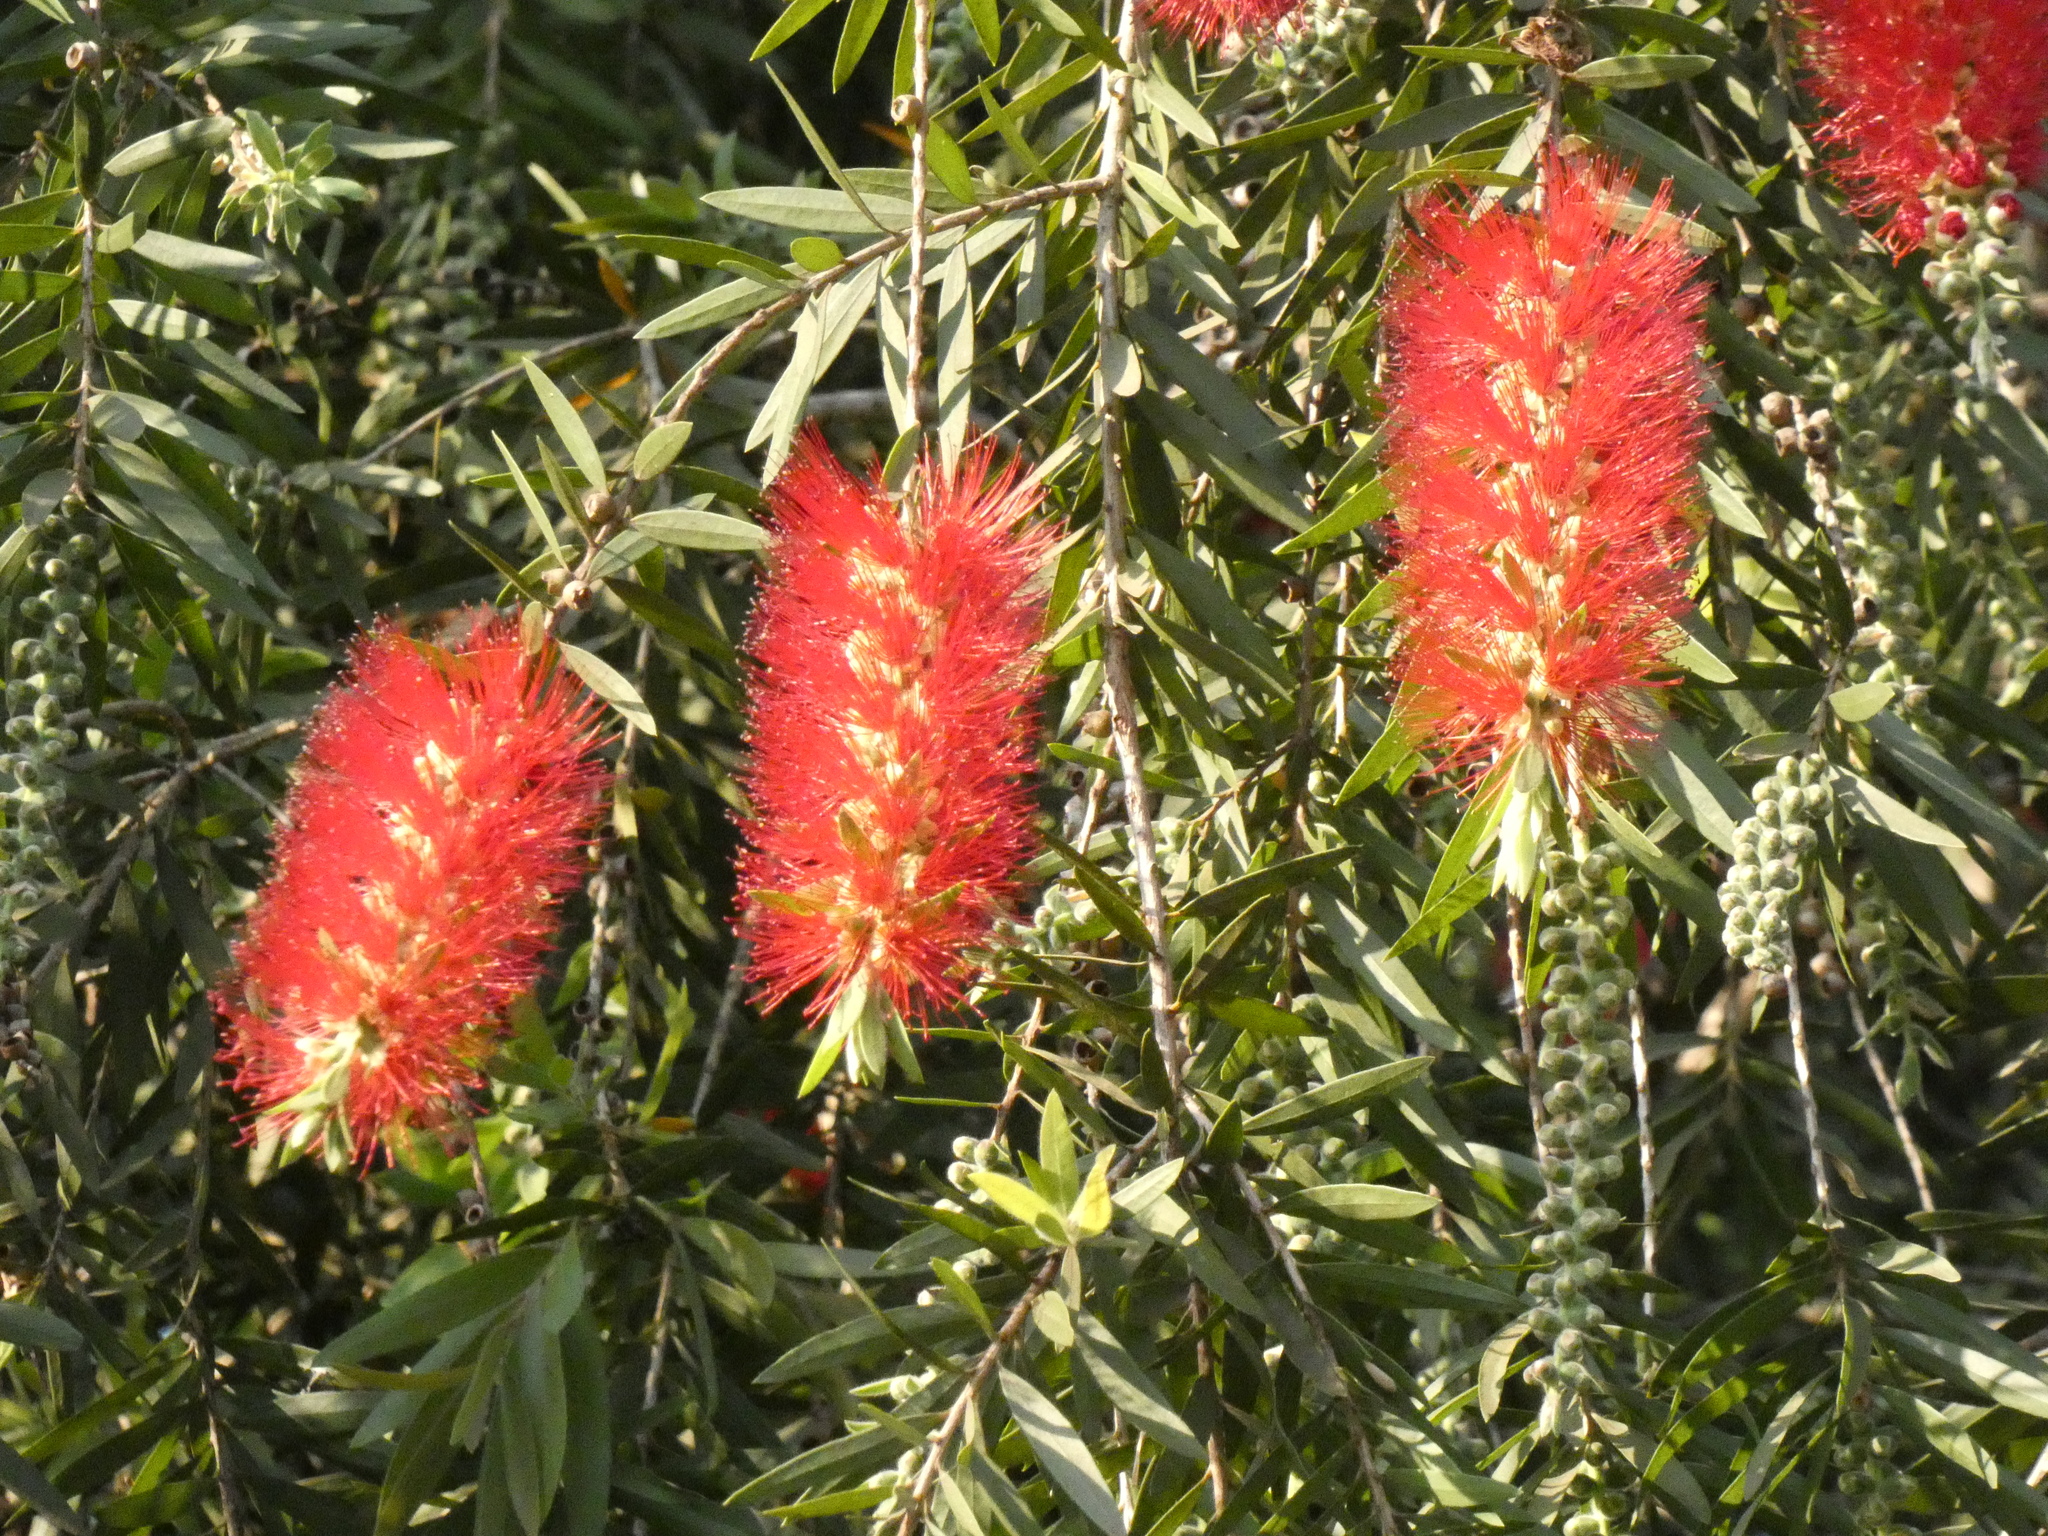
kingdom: Plantae
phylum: Tracheophyta
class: Magnoliopsida
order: Myrtales
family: Myrtaceae
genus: Callistemon
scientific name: Callistemon viminalis
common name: Drooping bottlebrush
